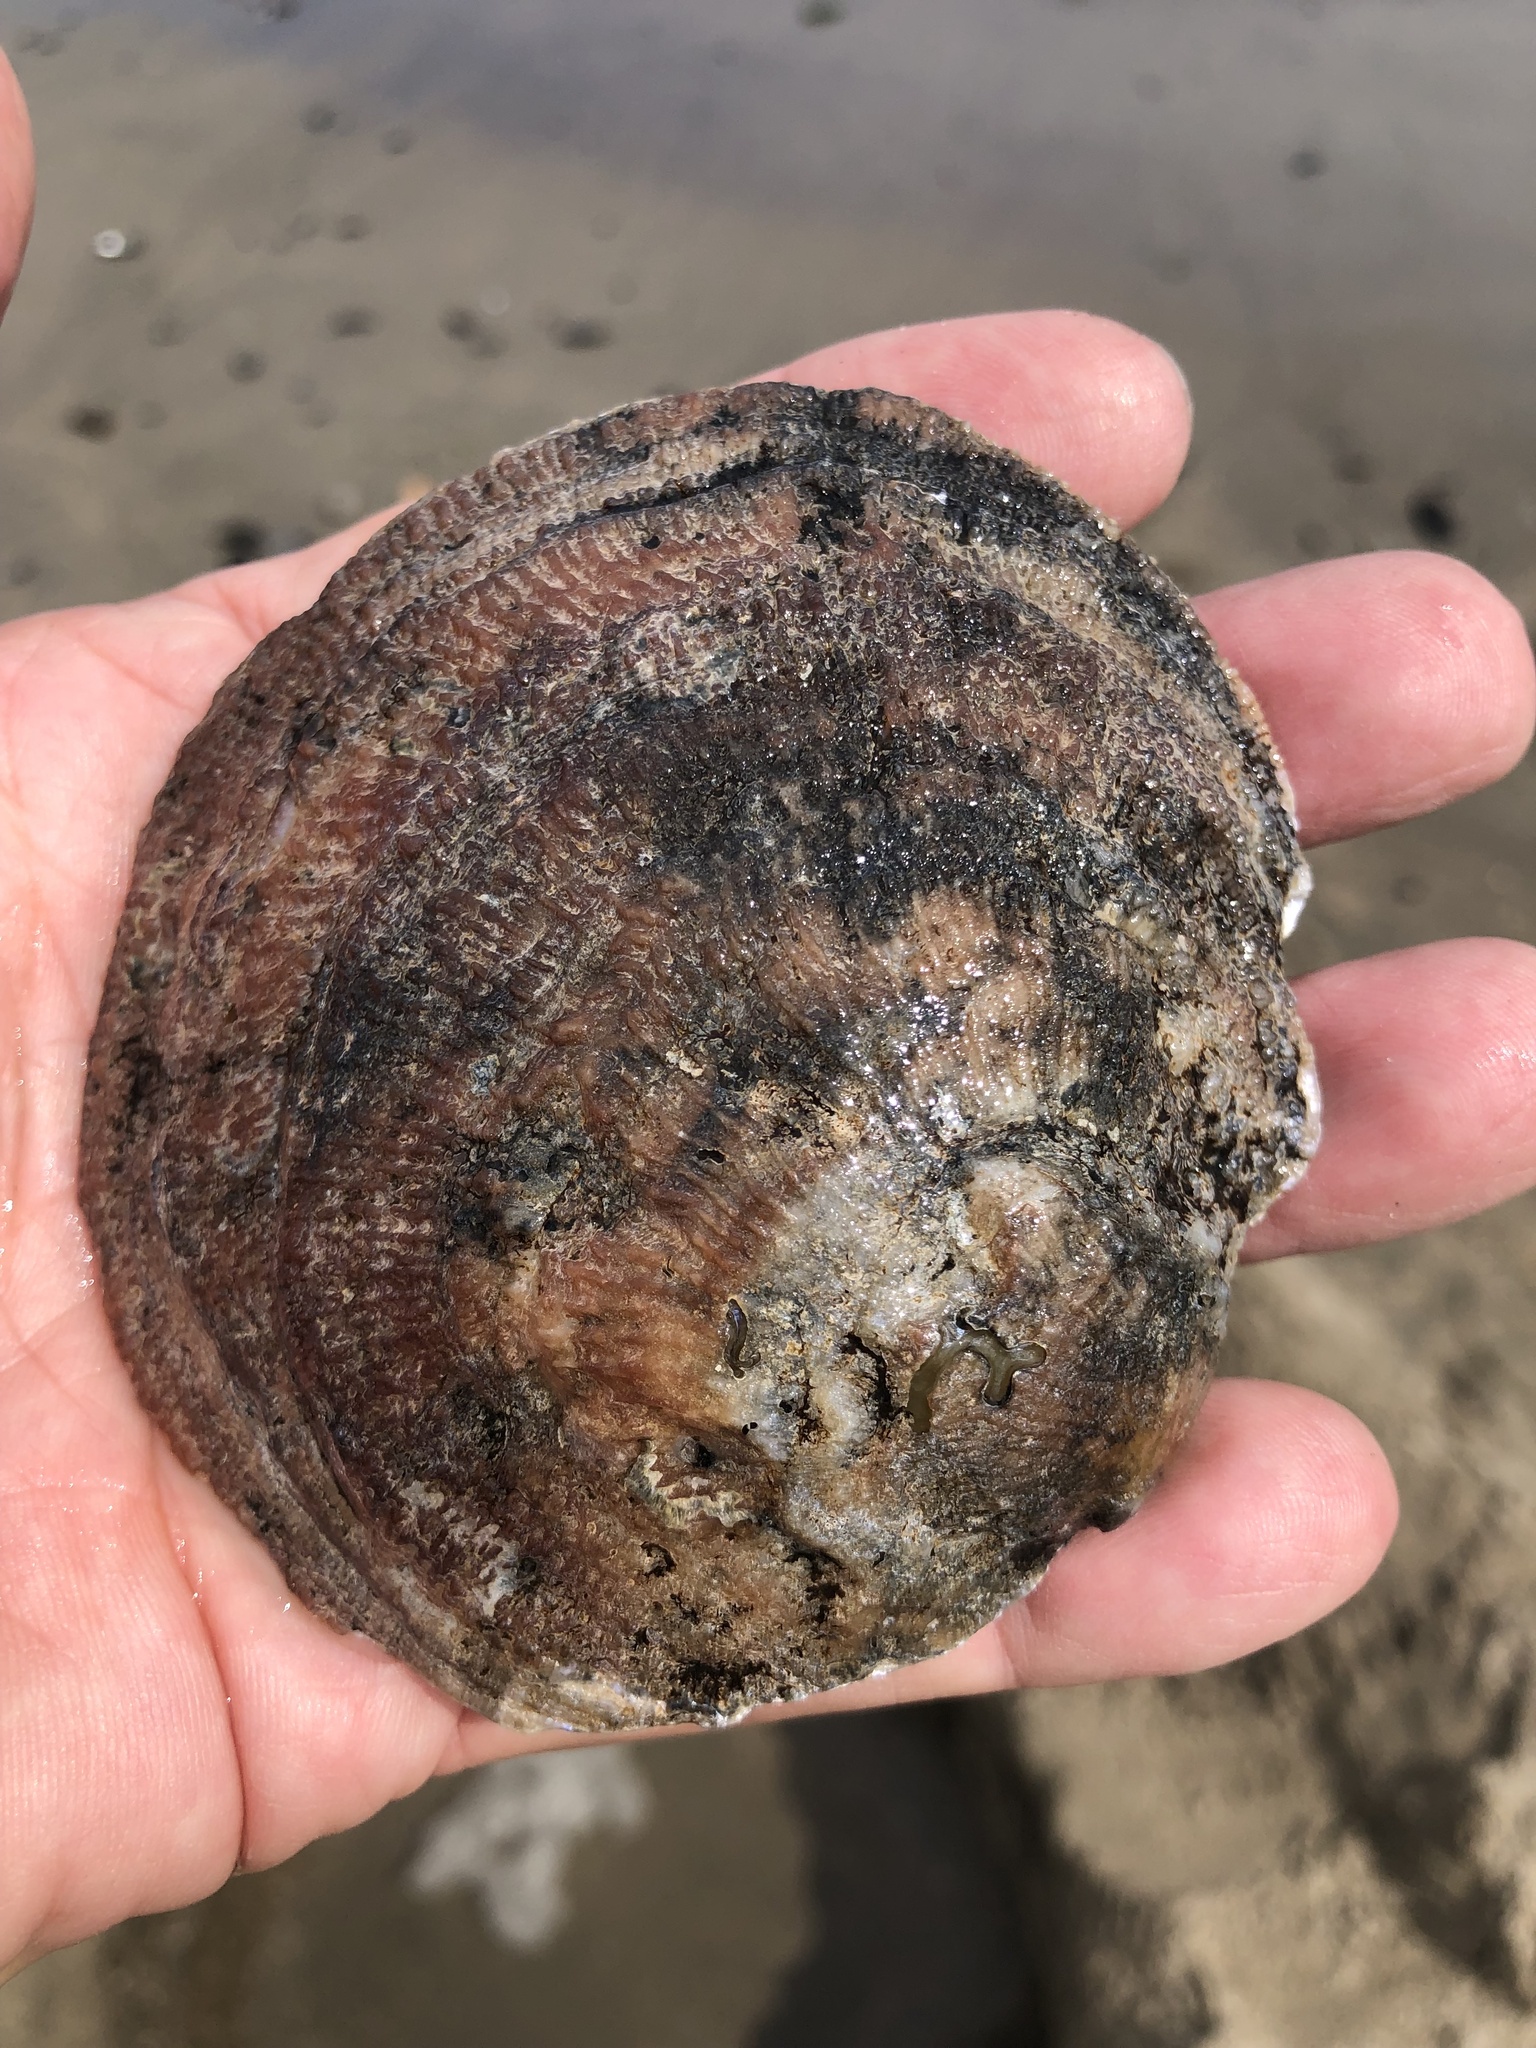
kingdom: Animalia
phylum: Mollusca
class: Bivalvia
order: Pectinida
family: Anomiidae
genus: Pododesmus
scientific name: Pododesmus macrochisma
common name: Alaska jingle
